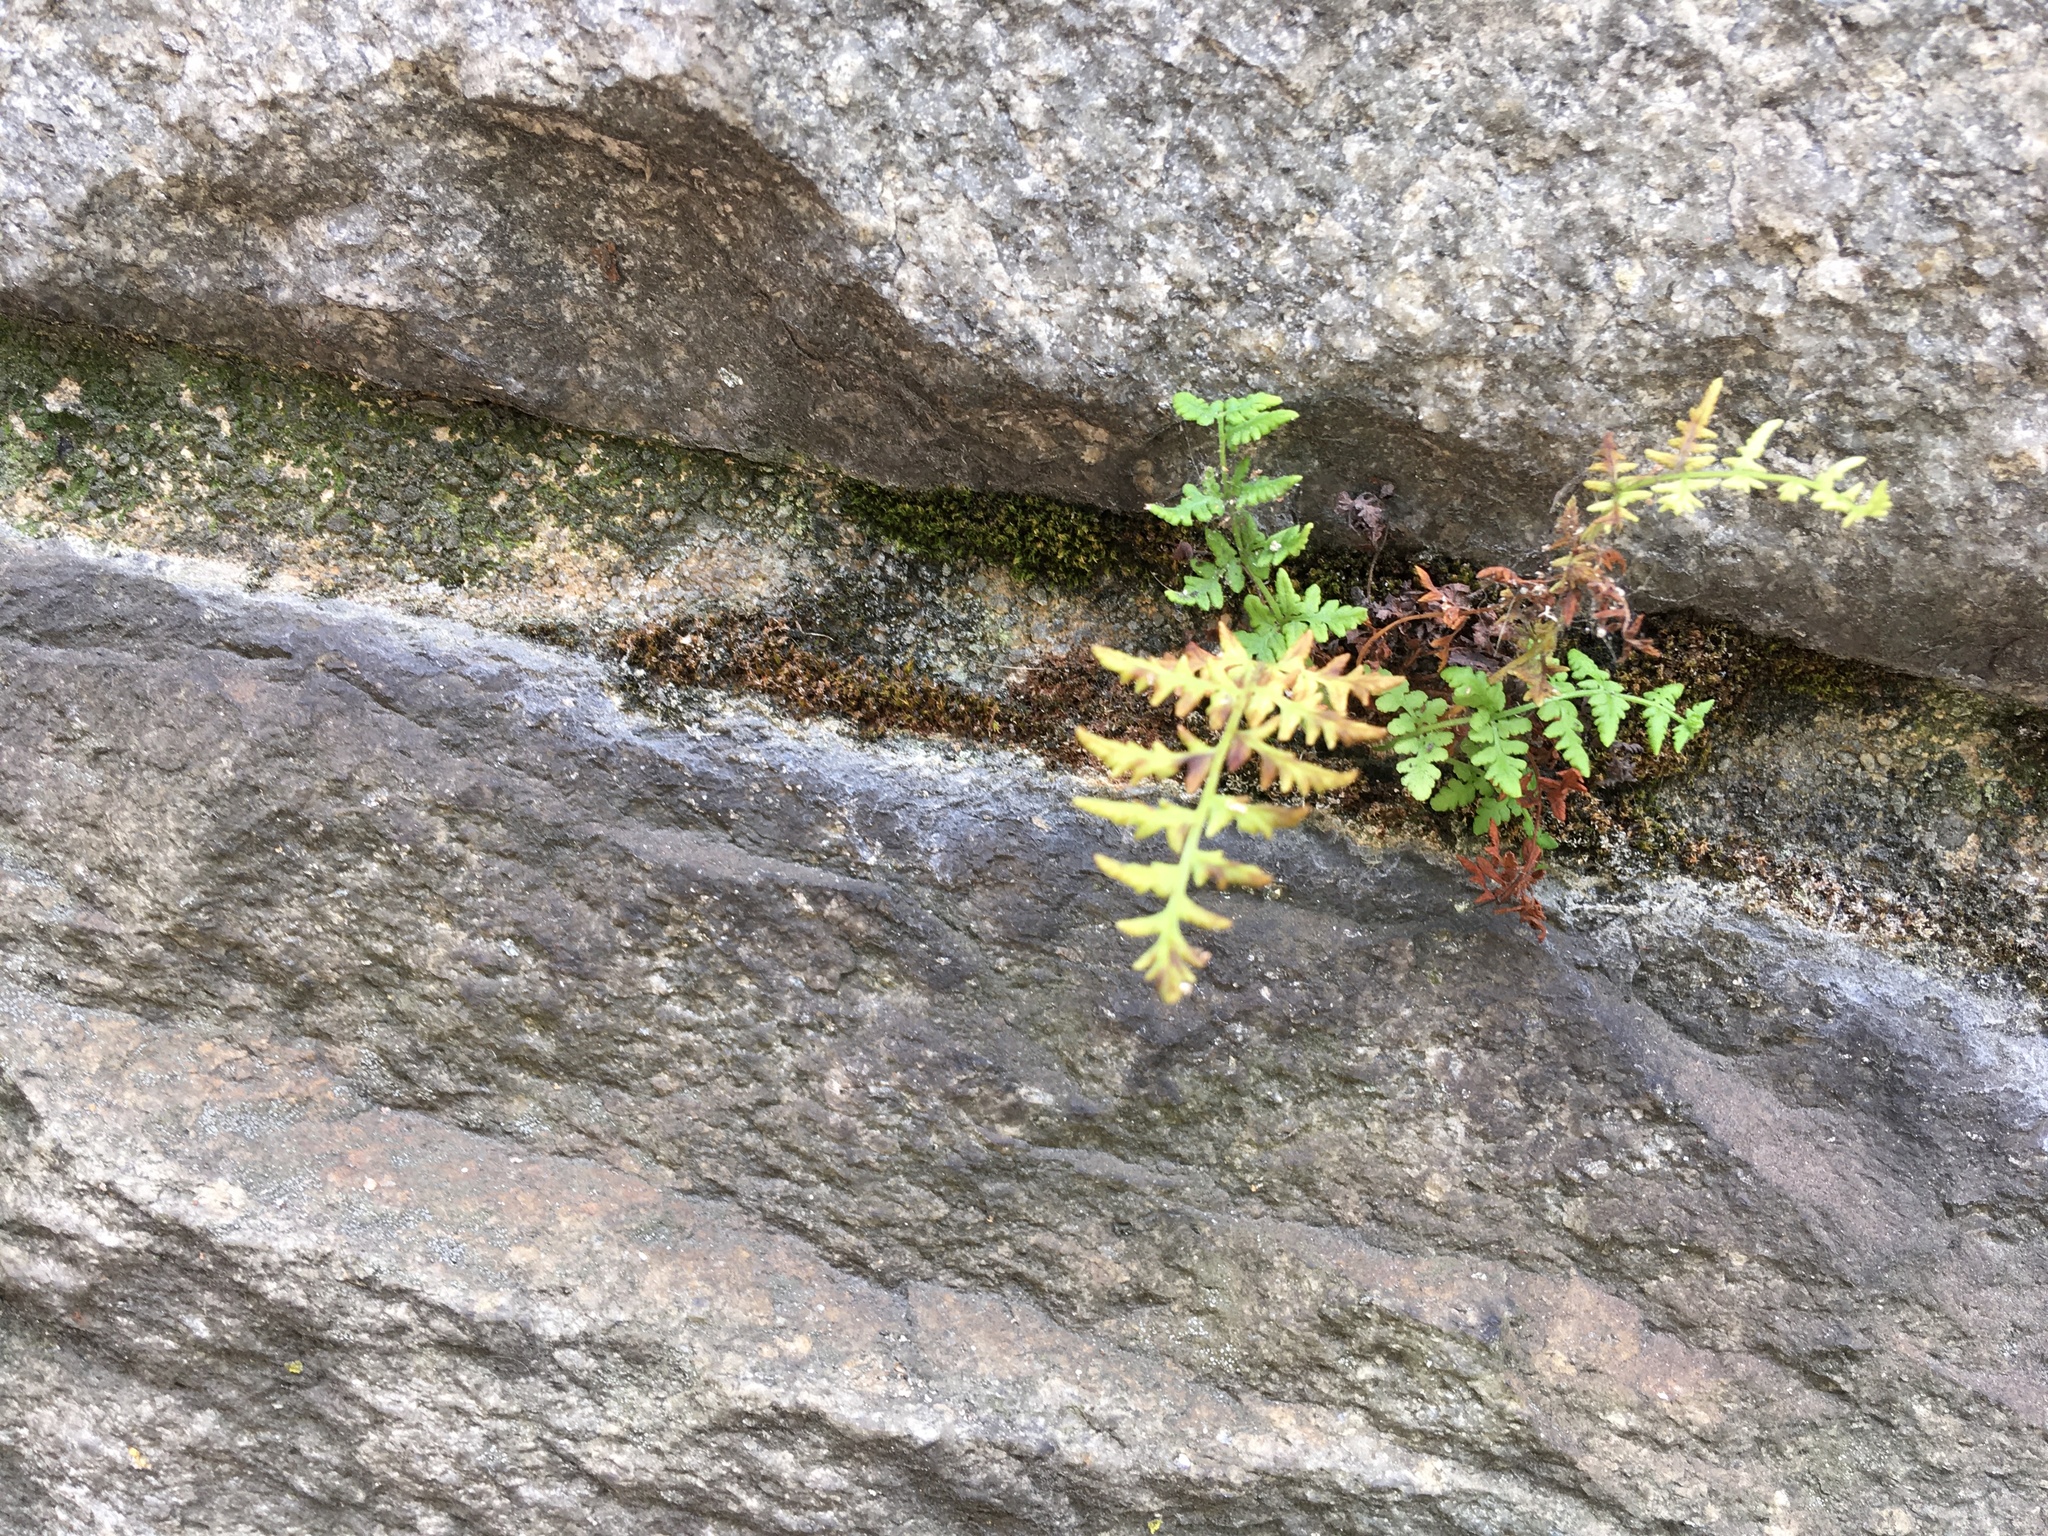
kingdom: Plantae
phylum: Tracheophyta
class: Polypodiopsida
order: Polypodiales
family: Woodsiaceae
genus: Physematium
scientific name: Physematium obtusum
